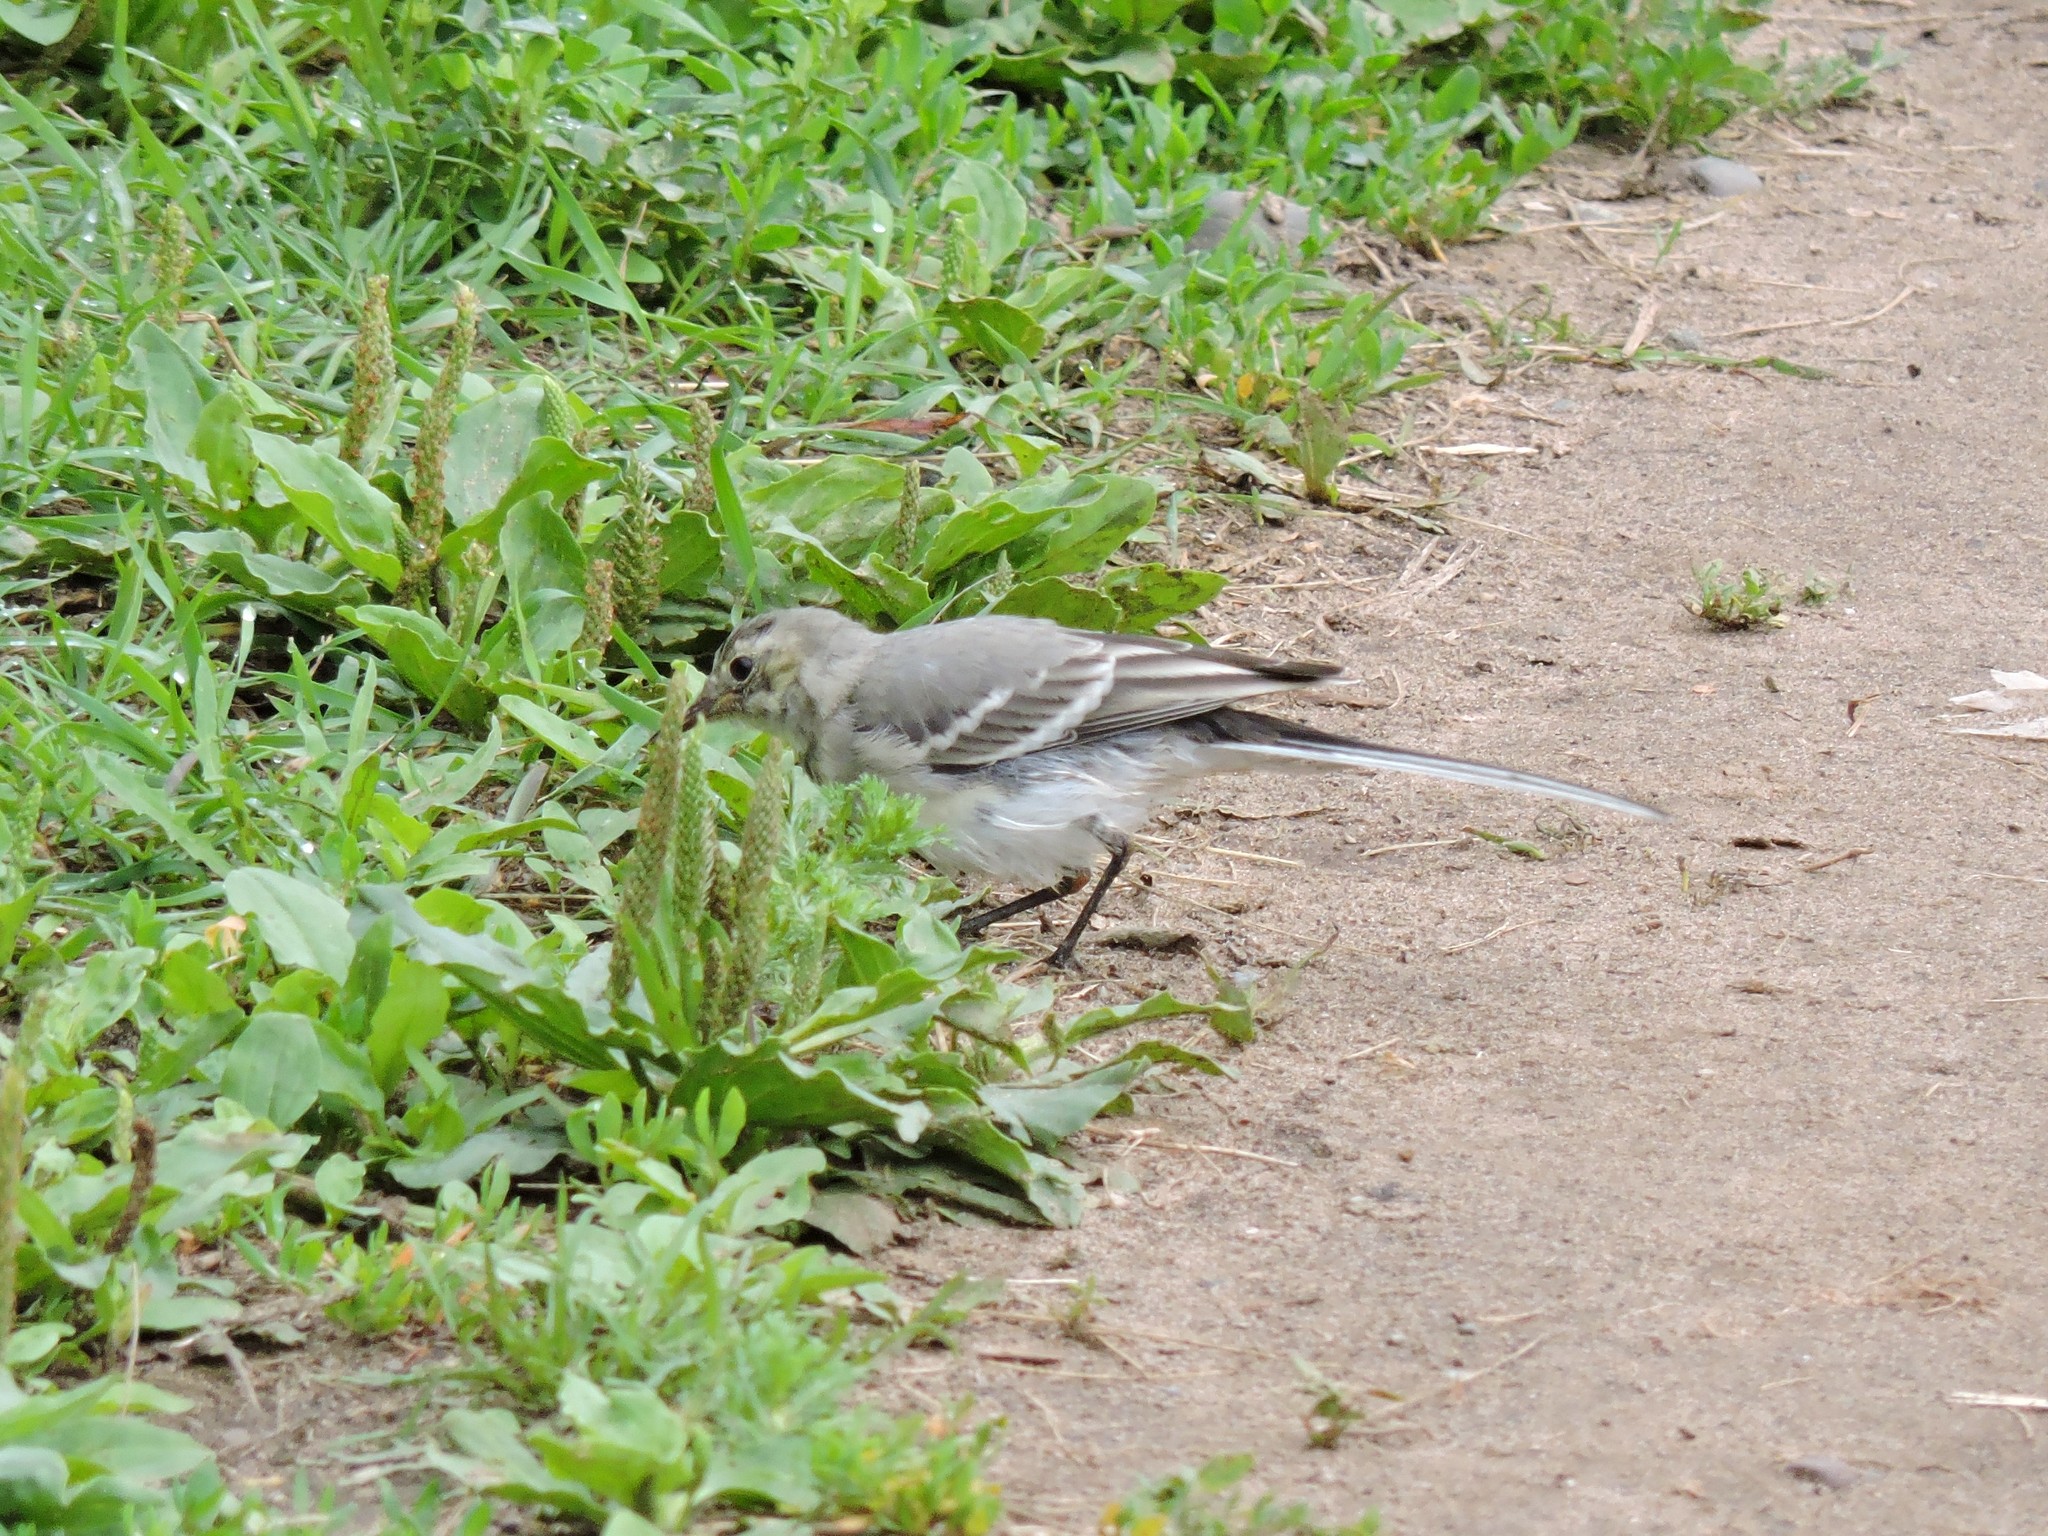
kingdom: Animalia
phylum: Chordata
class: Aves
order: Passeriformes
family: Motacillidae
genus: Motacilla
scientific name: Motacilla alba
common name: White wagtail
